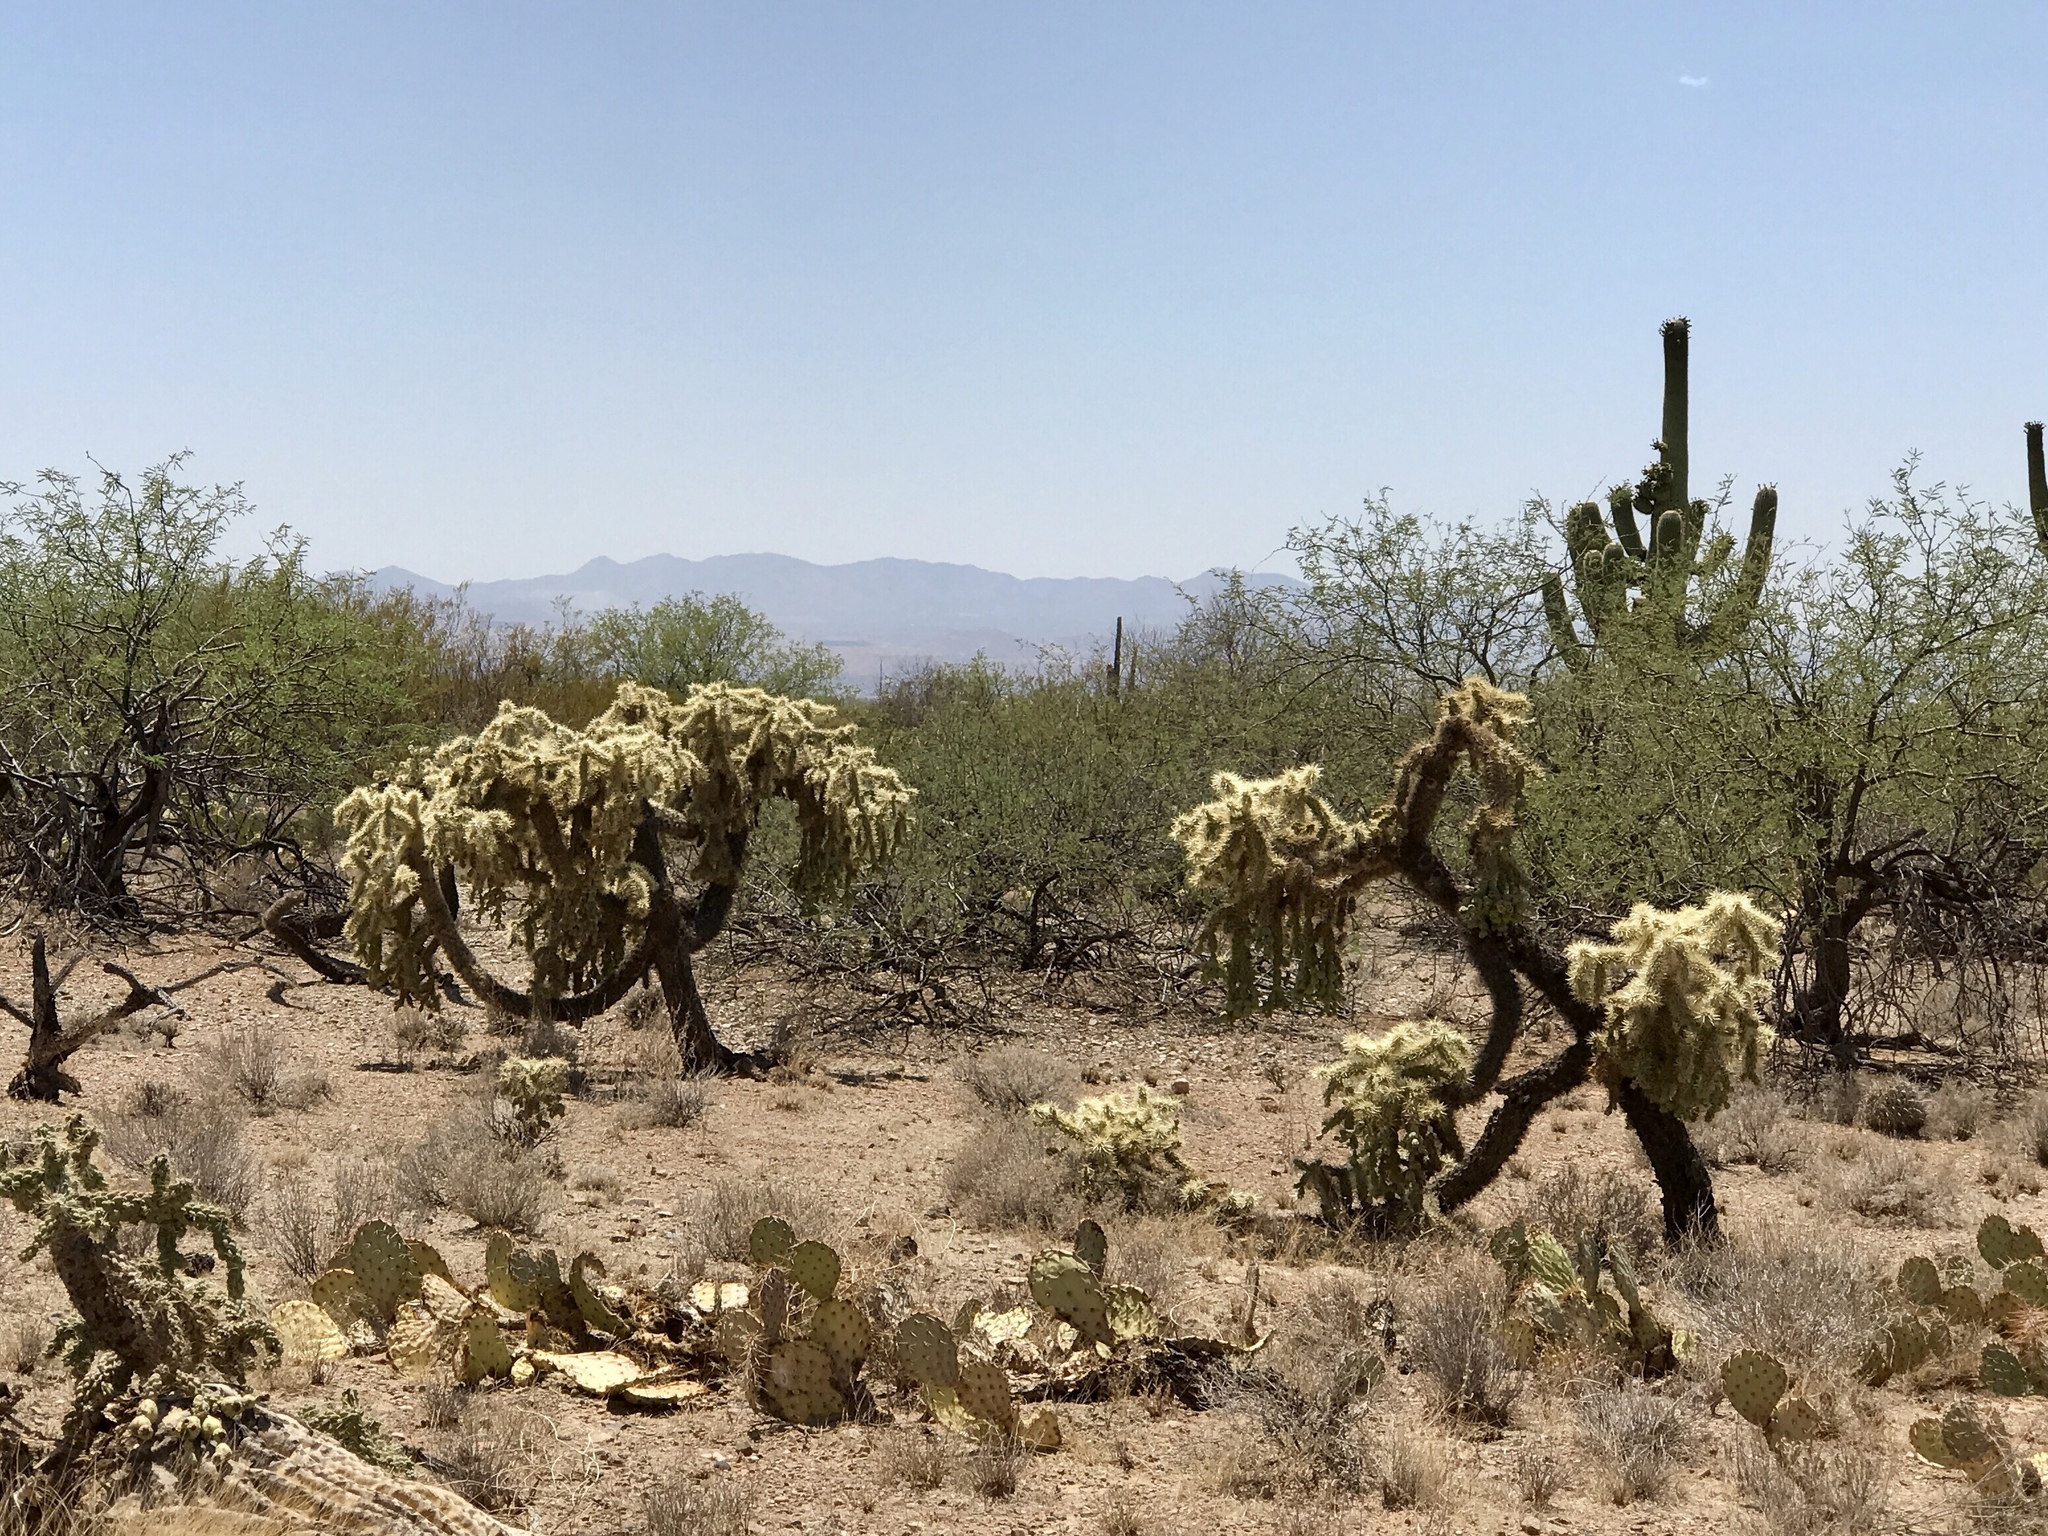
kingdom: Plantae
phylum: Tracheophyta
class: Magnoliopsida
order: Caryophyllales
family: Cactaceae
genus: Cylindropuntia
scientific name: Cylindropuntia fulgida
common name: Jumping cholla
